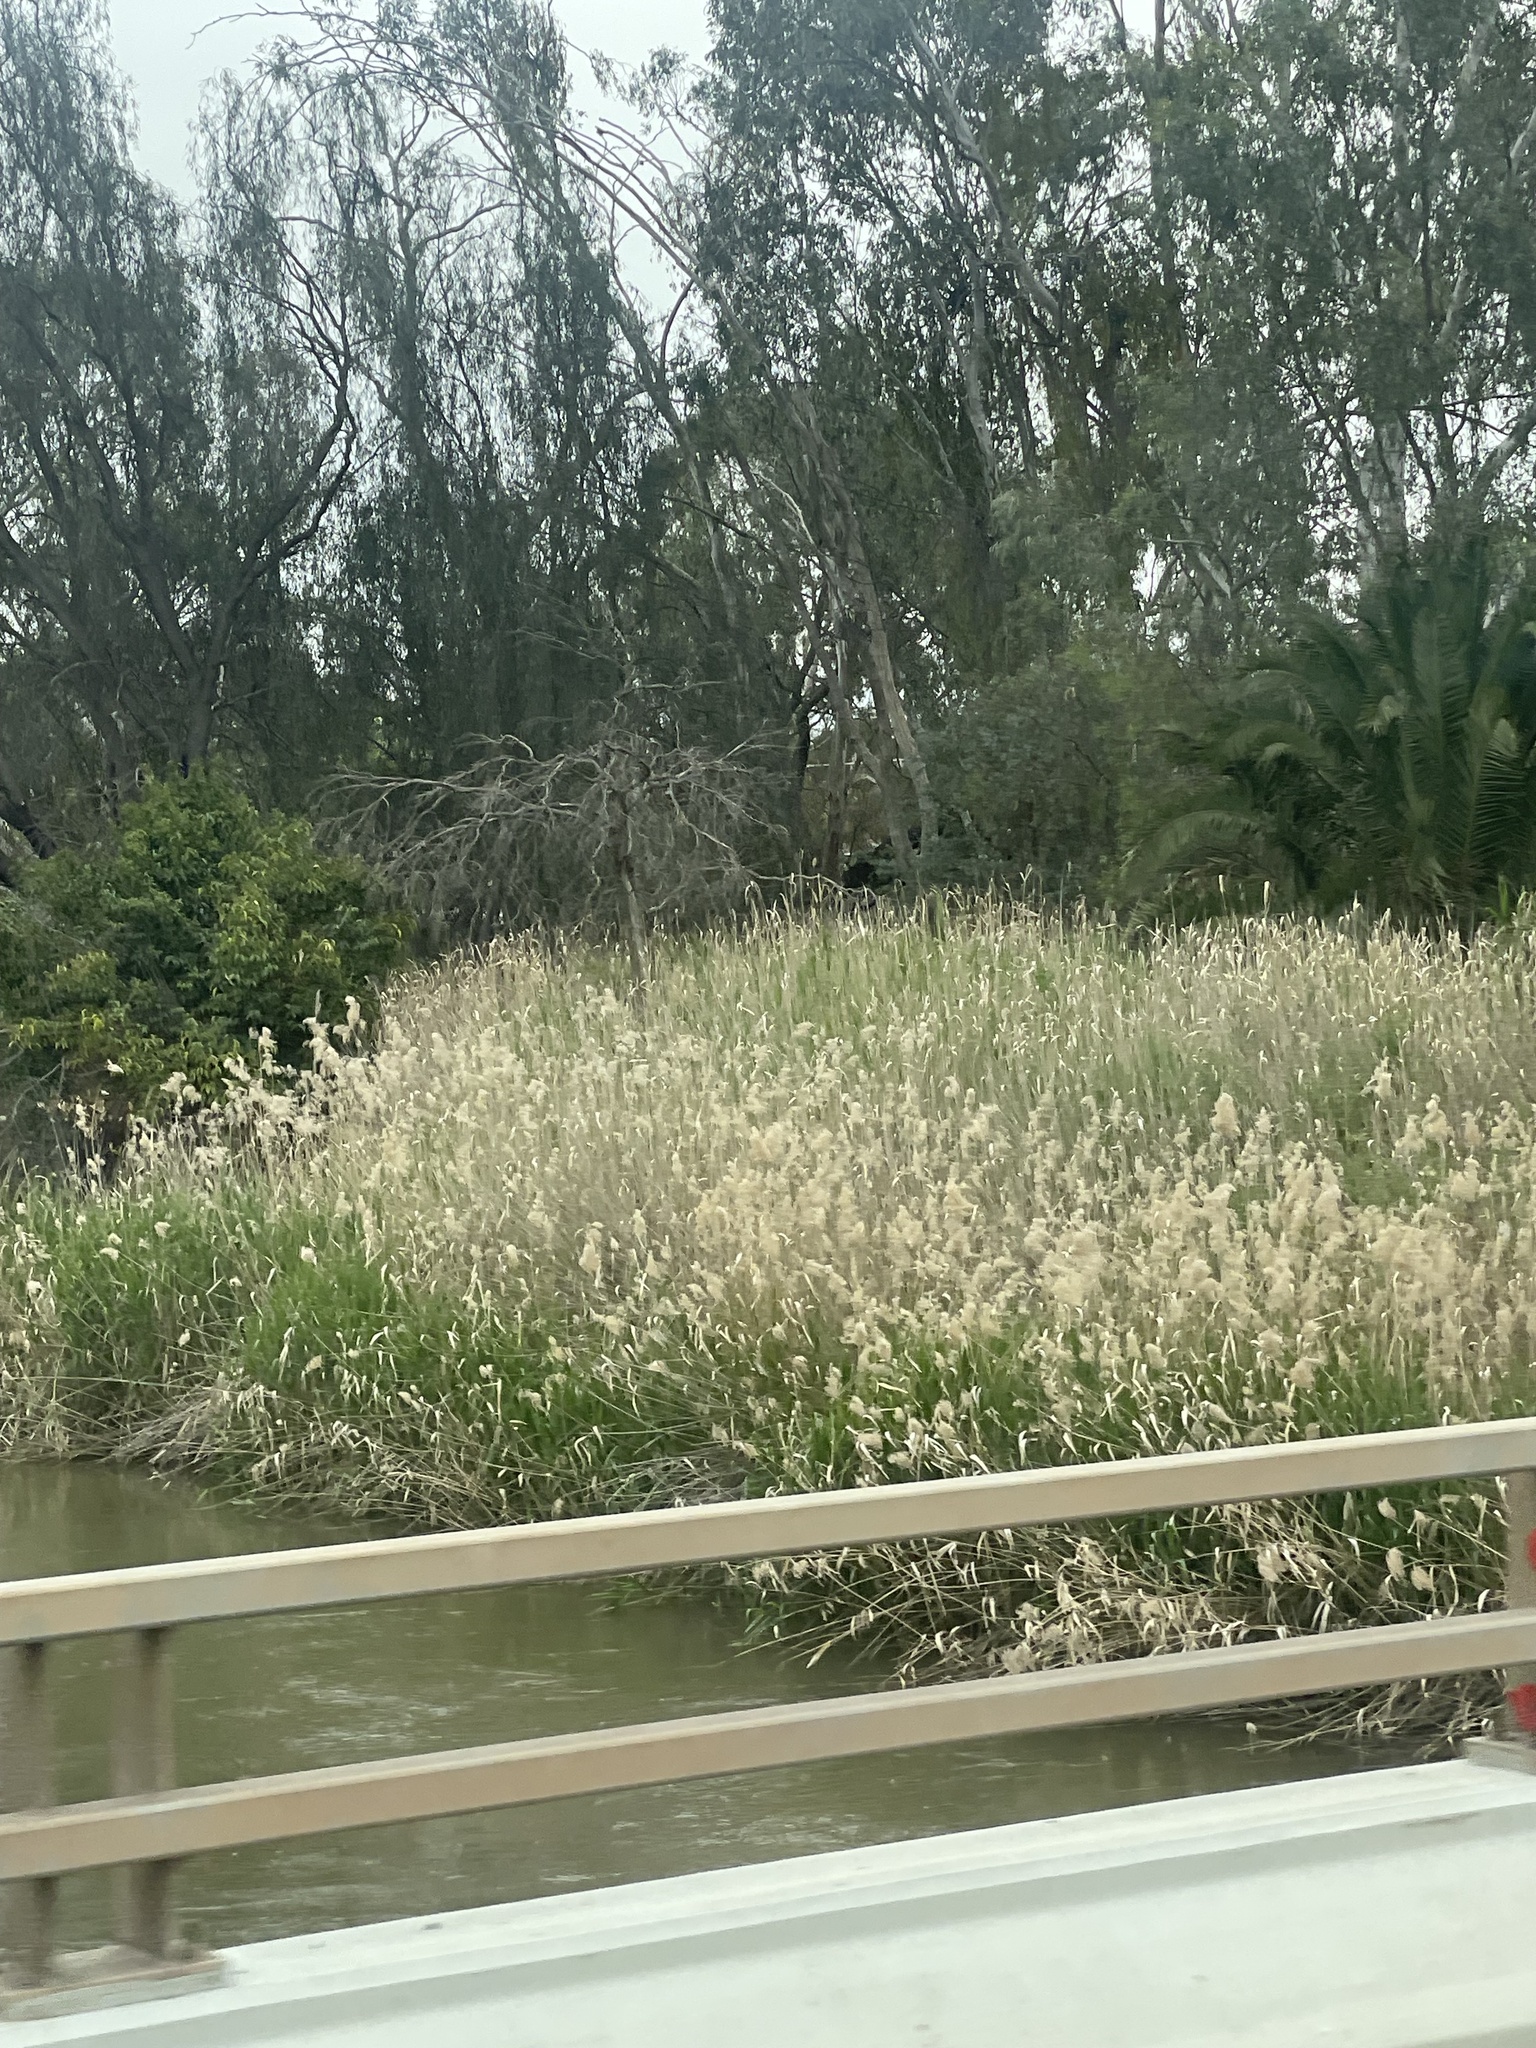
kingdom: Plantae
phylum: Tracheophyta
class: Liliopsida
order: Poales
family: Poaceae
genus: Phragmites
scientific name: Phragmites australis
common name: Common reed
